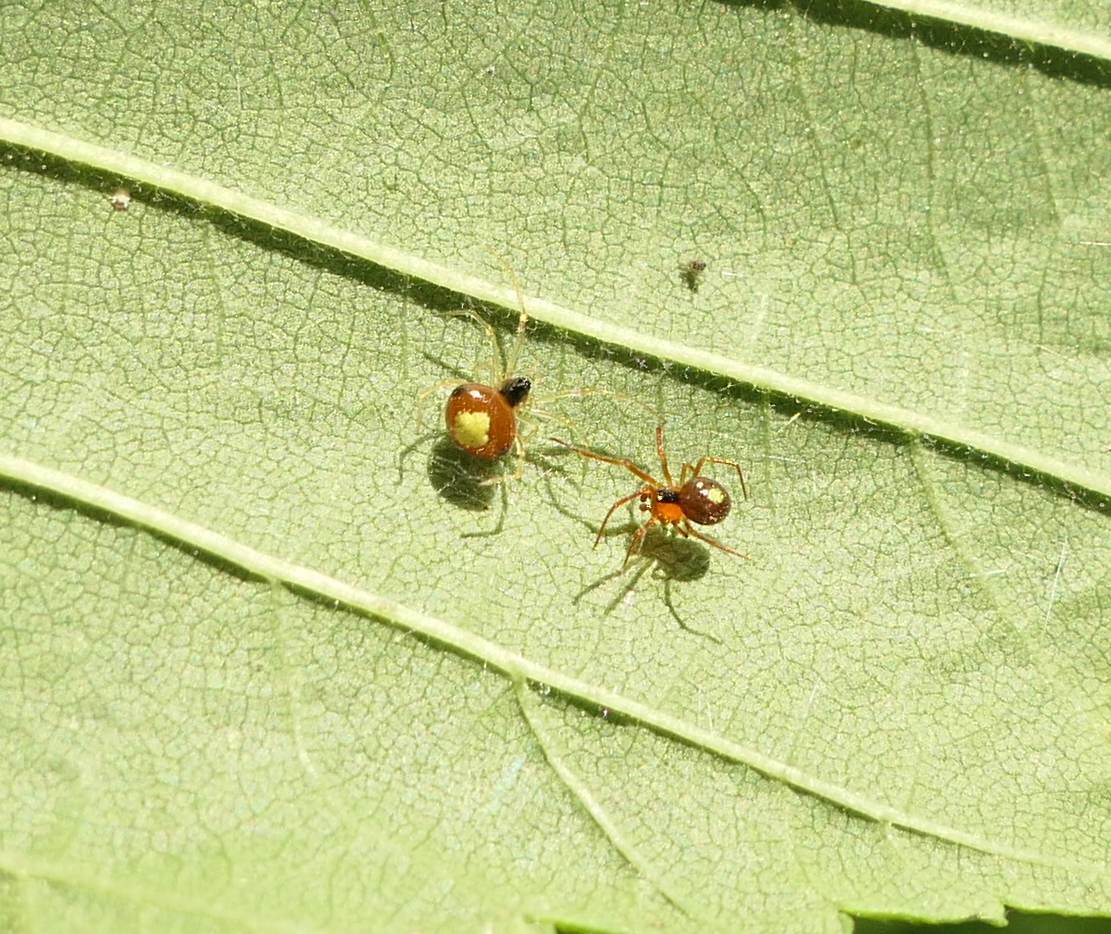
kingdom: Animalia
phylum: Arthropoda
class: Arachnida
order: Araneae
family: Theridiidae
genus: Theridula
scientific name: Theridula emertoni
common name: Emerton's bitubercled cobweaver
